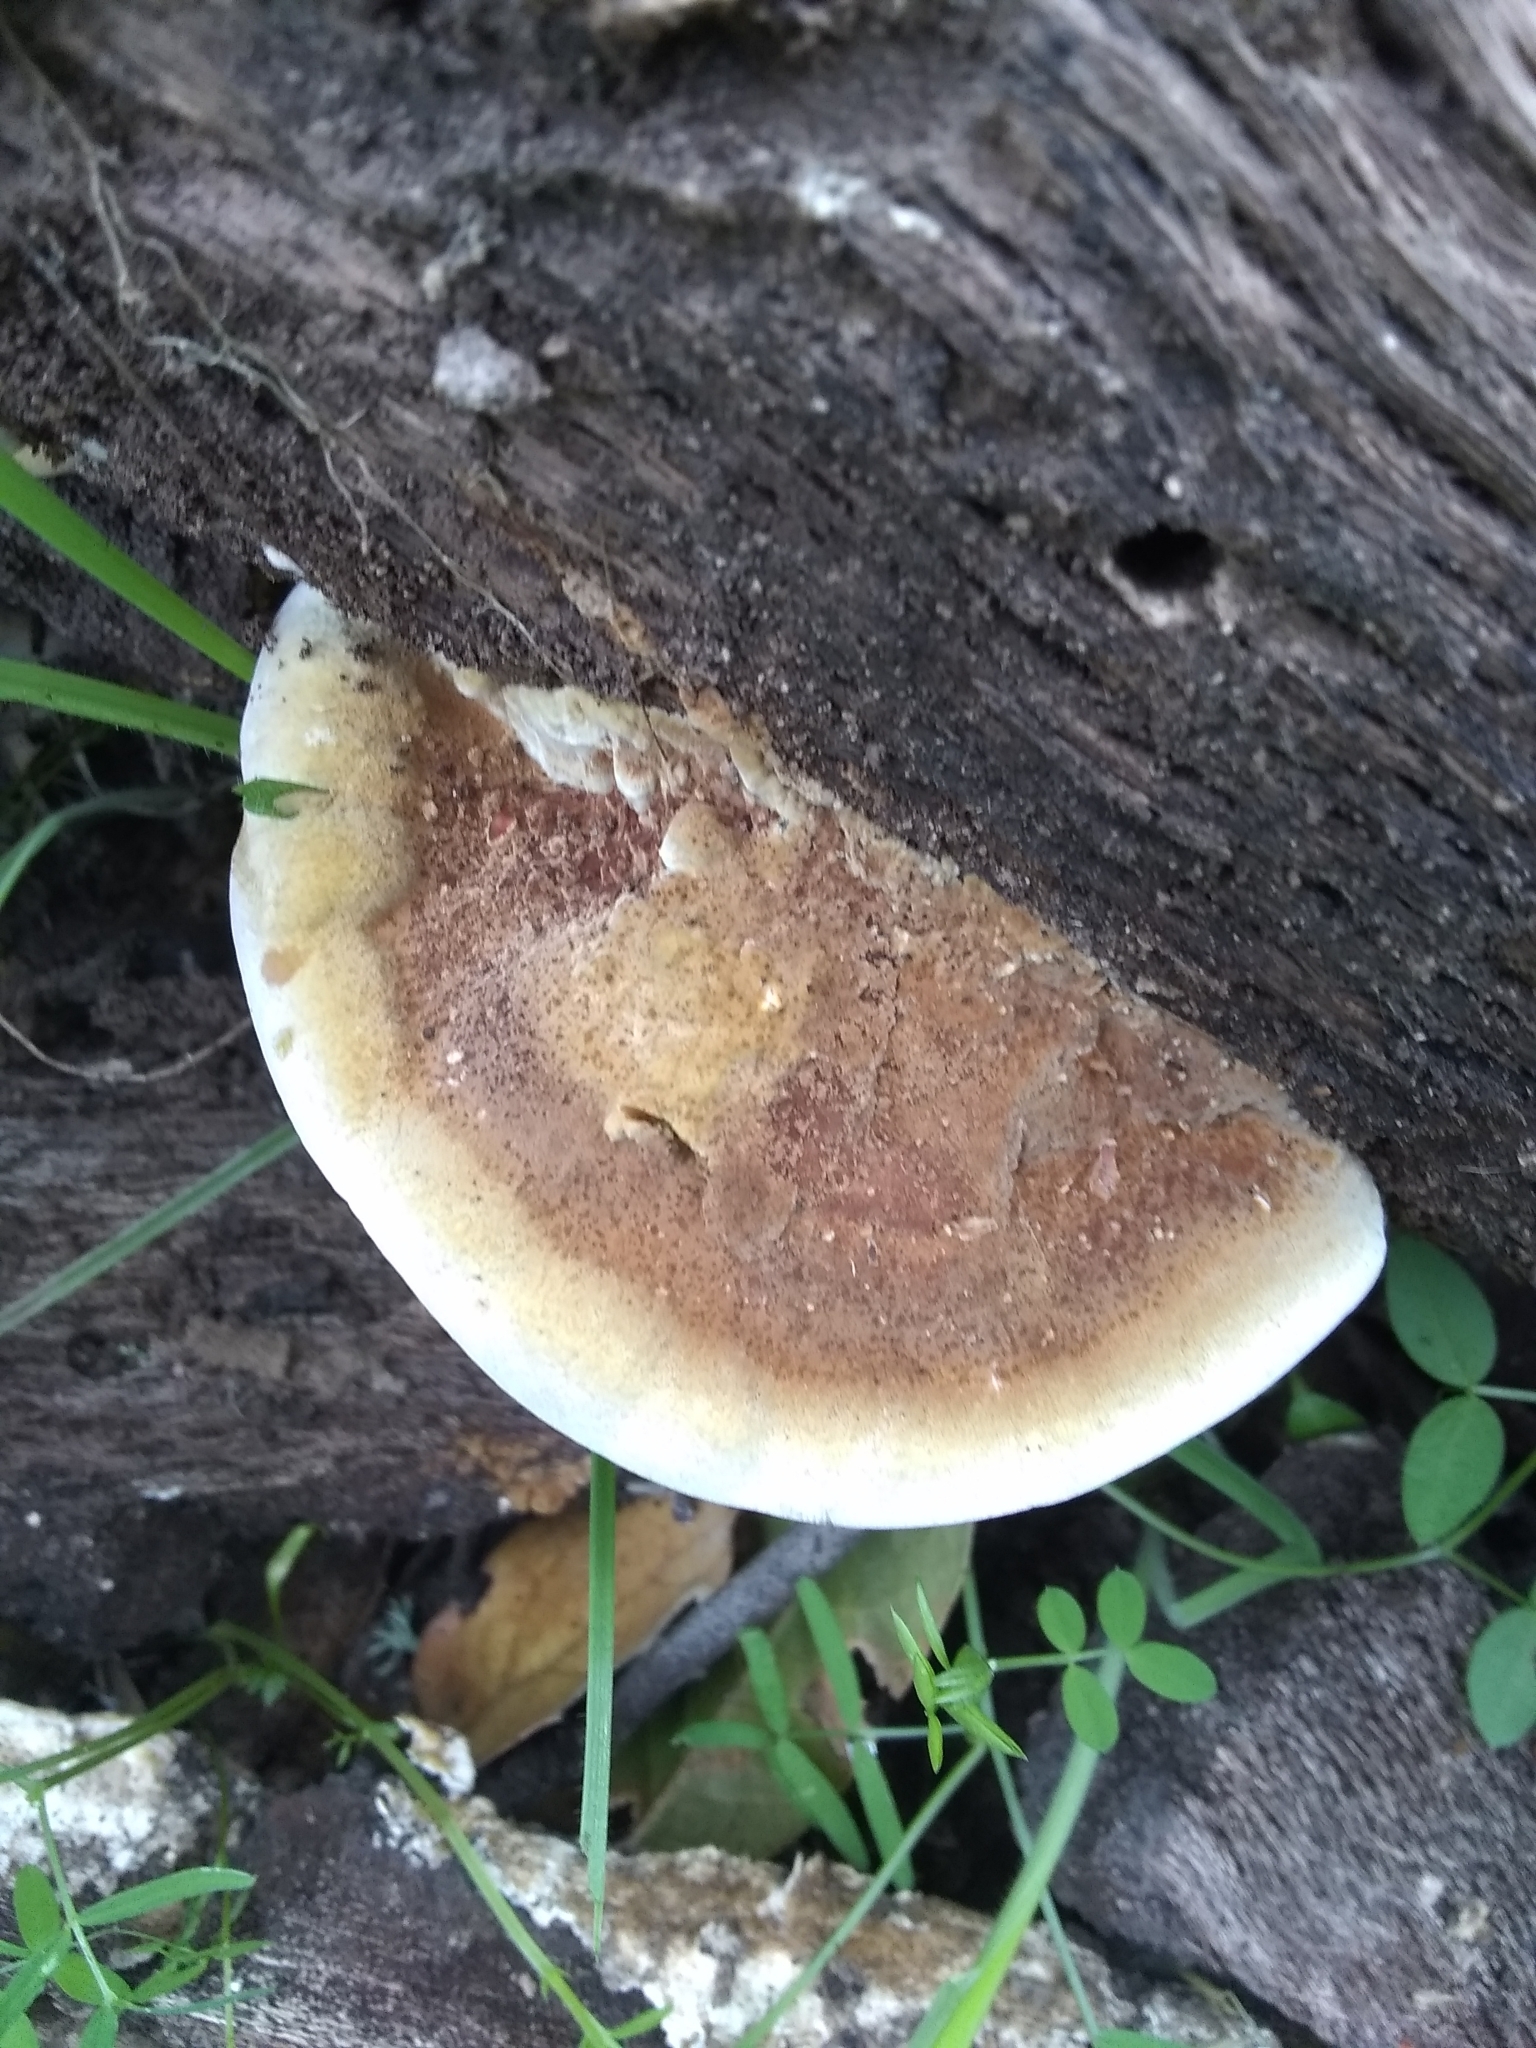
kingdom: Fungi
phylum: Basidiomycota
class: Agaricomycetes
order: Hymenochaetales
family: Hymenochaetaceae
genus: Phellinus
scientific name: Phellinus gilvus
